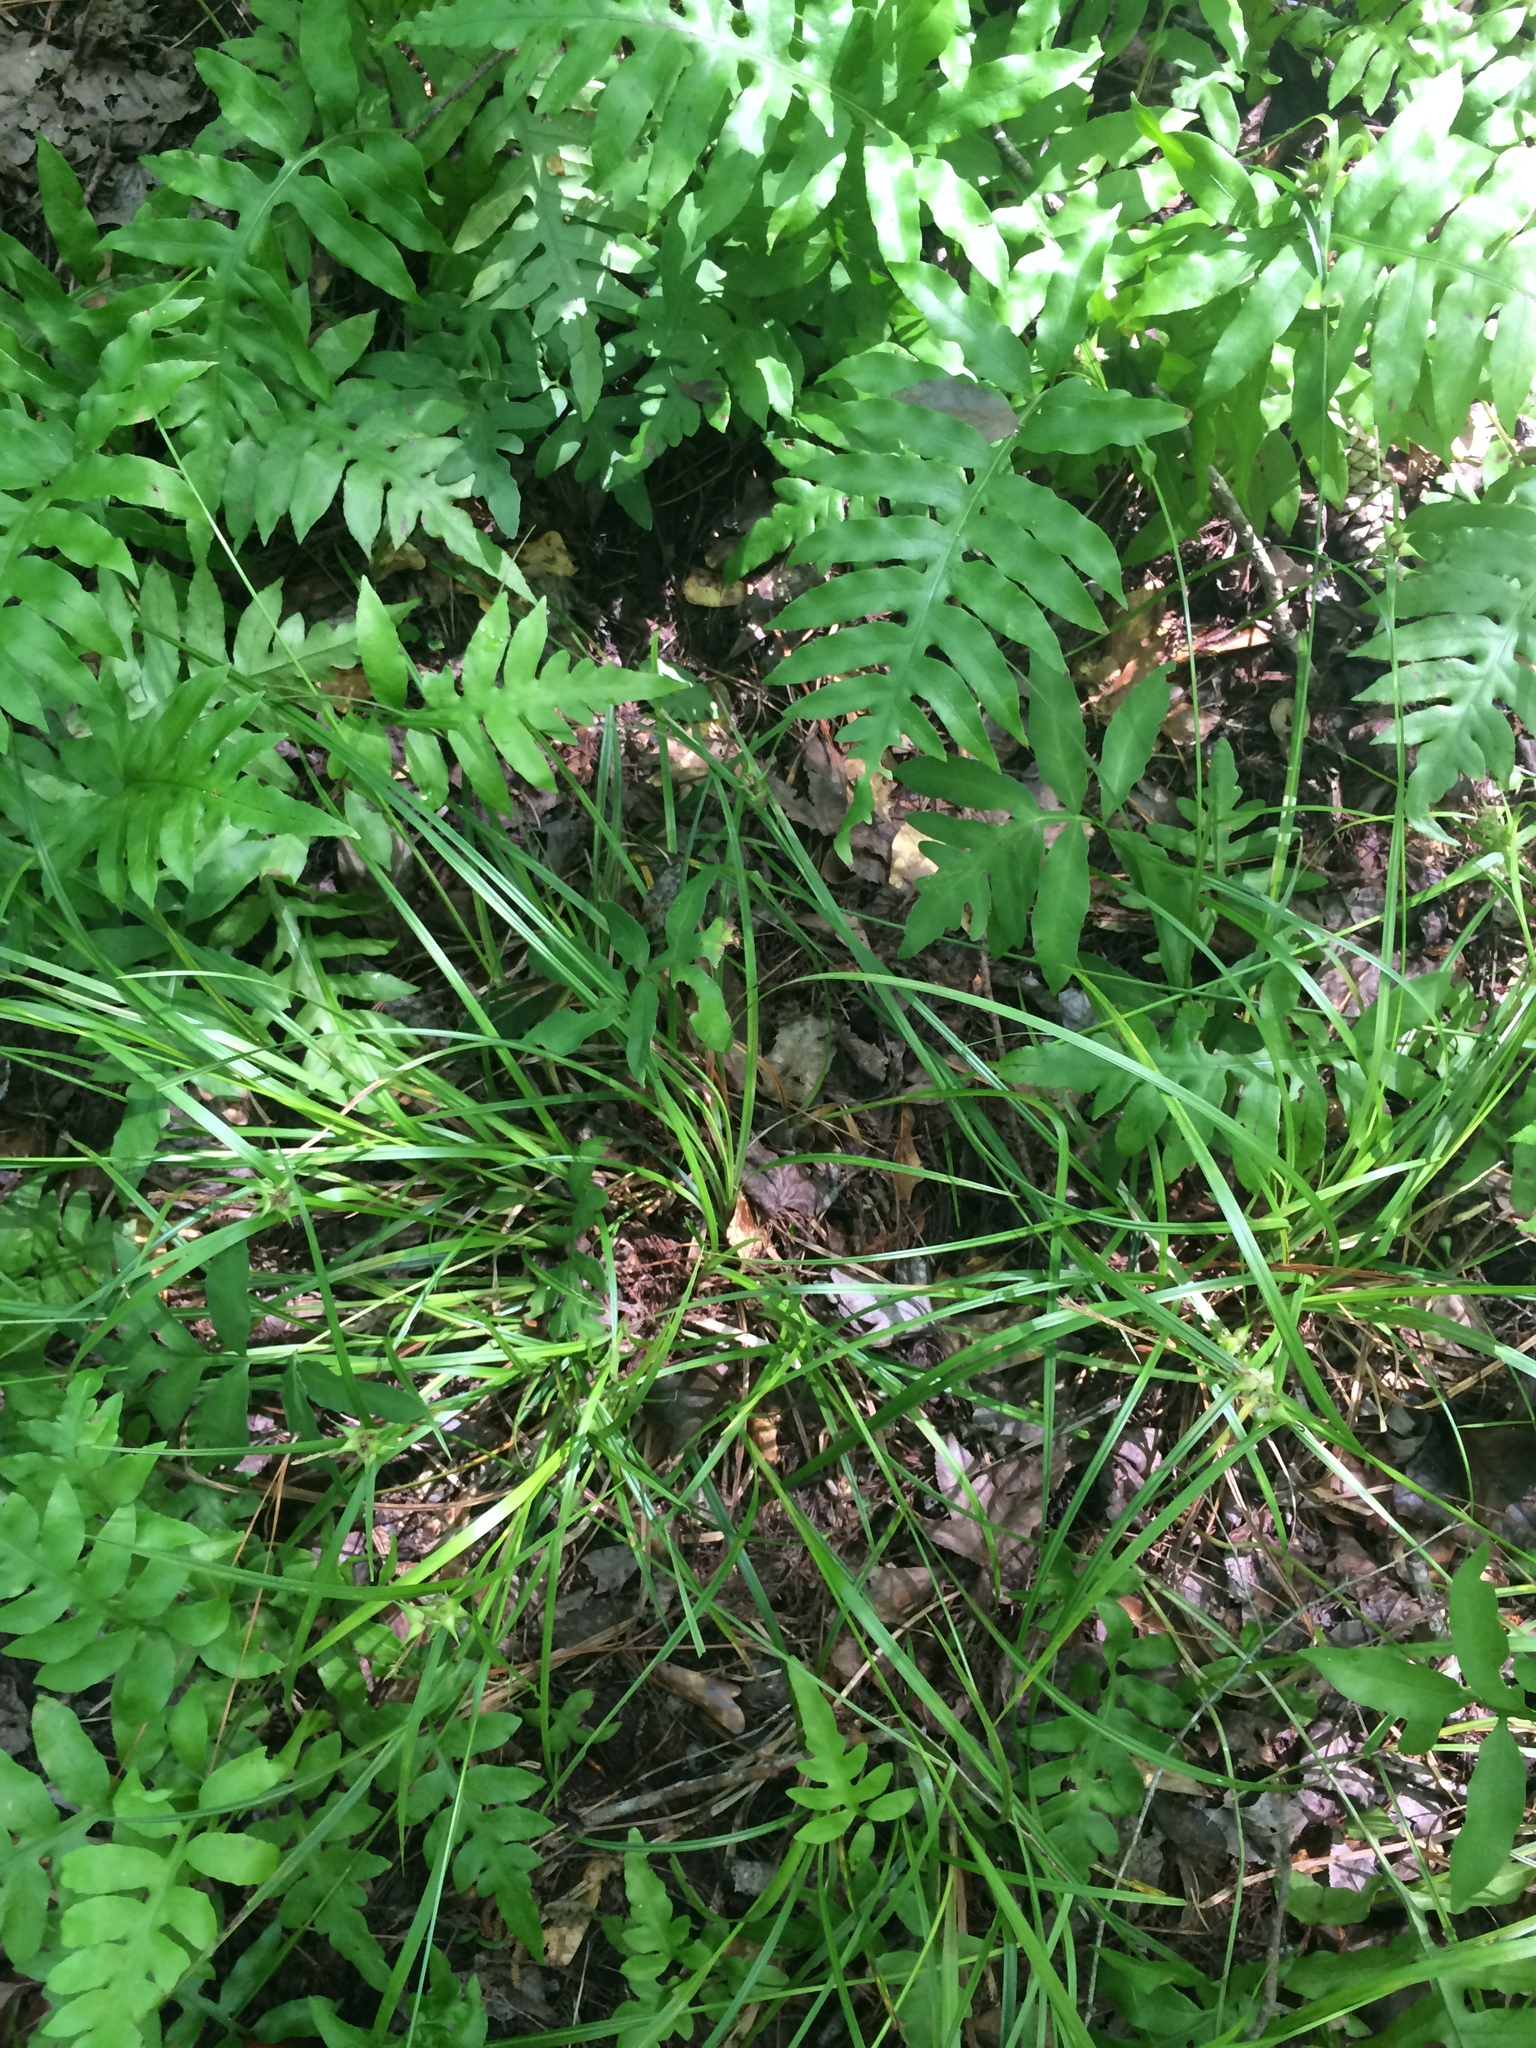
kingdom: Plantae
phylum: Tracheophyta
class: Liliopsida
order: Poales
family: Cyperaceae
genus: Carex
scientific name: Carex intumescens
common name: Greater bladder sedge
